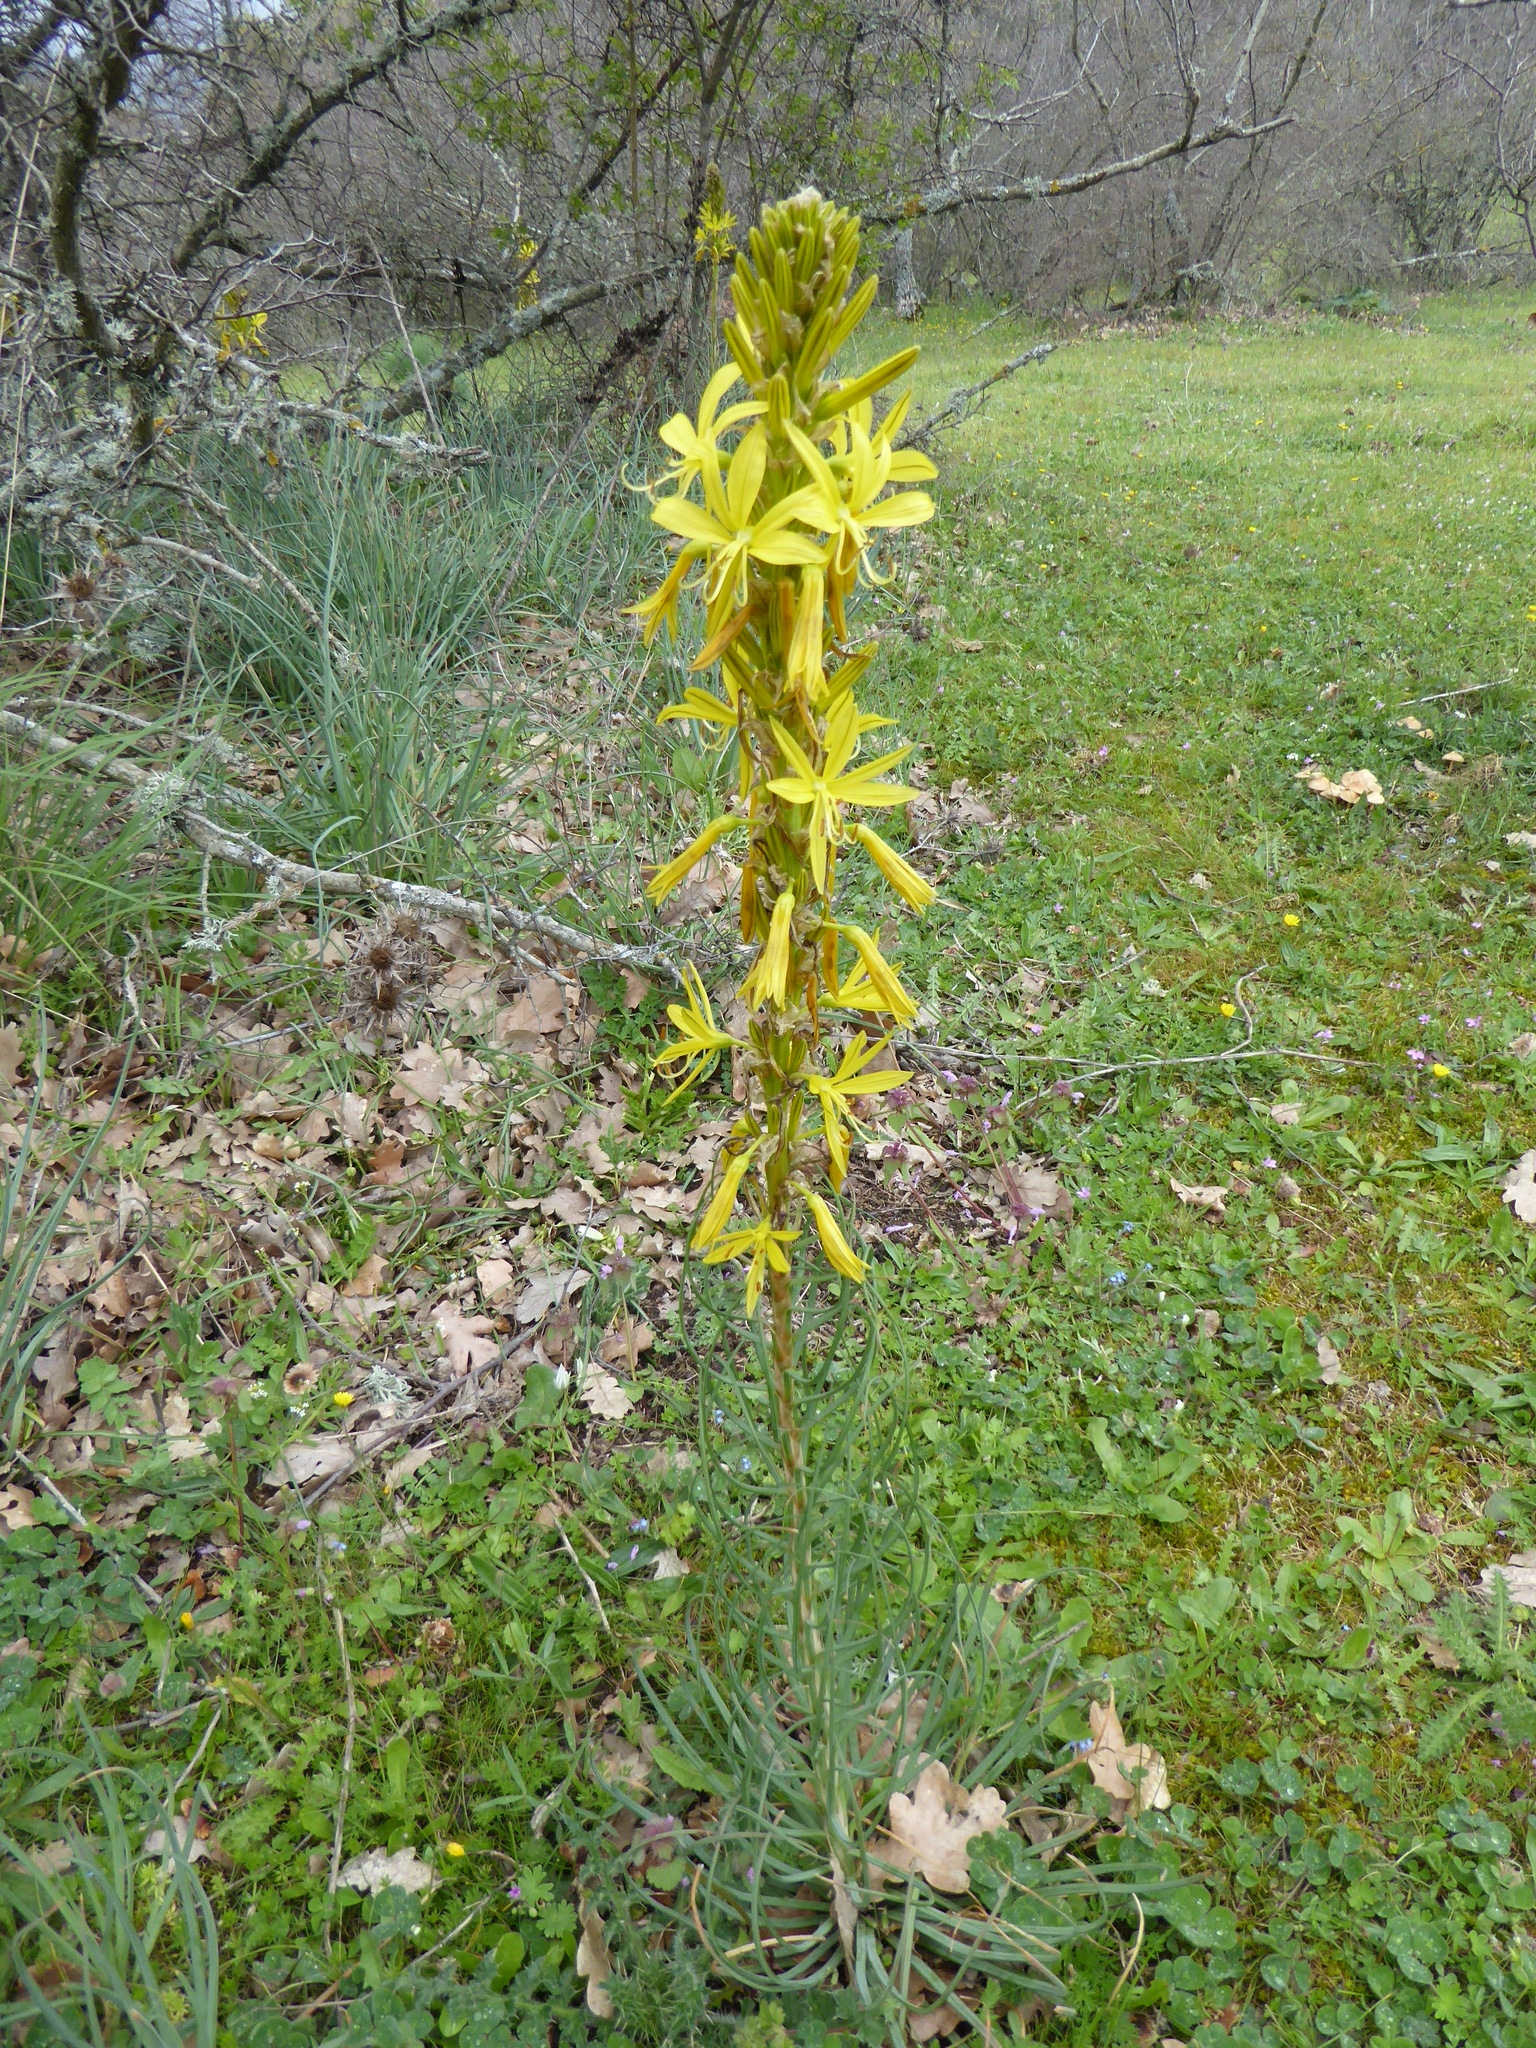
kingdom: Plantae
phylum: Tracheophyta
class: Liliopsida
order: Asparagales
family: Asphodelaceae
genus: Asphodeline
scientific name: Asphodeline lutea
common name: Yellow asphodel
